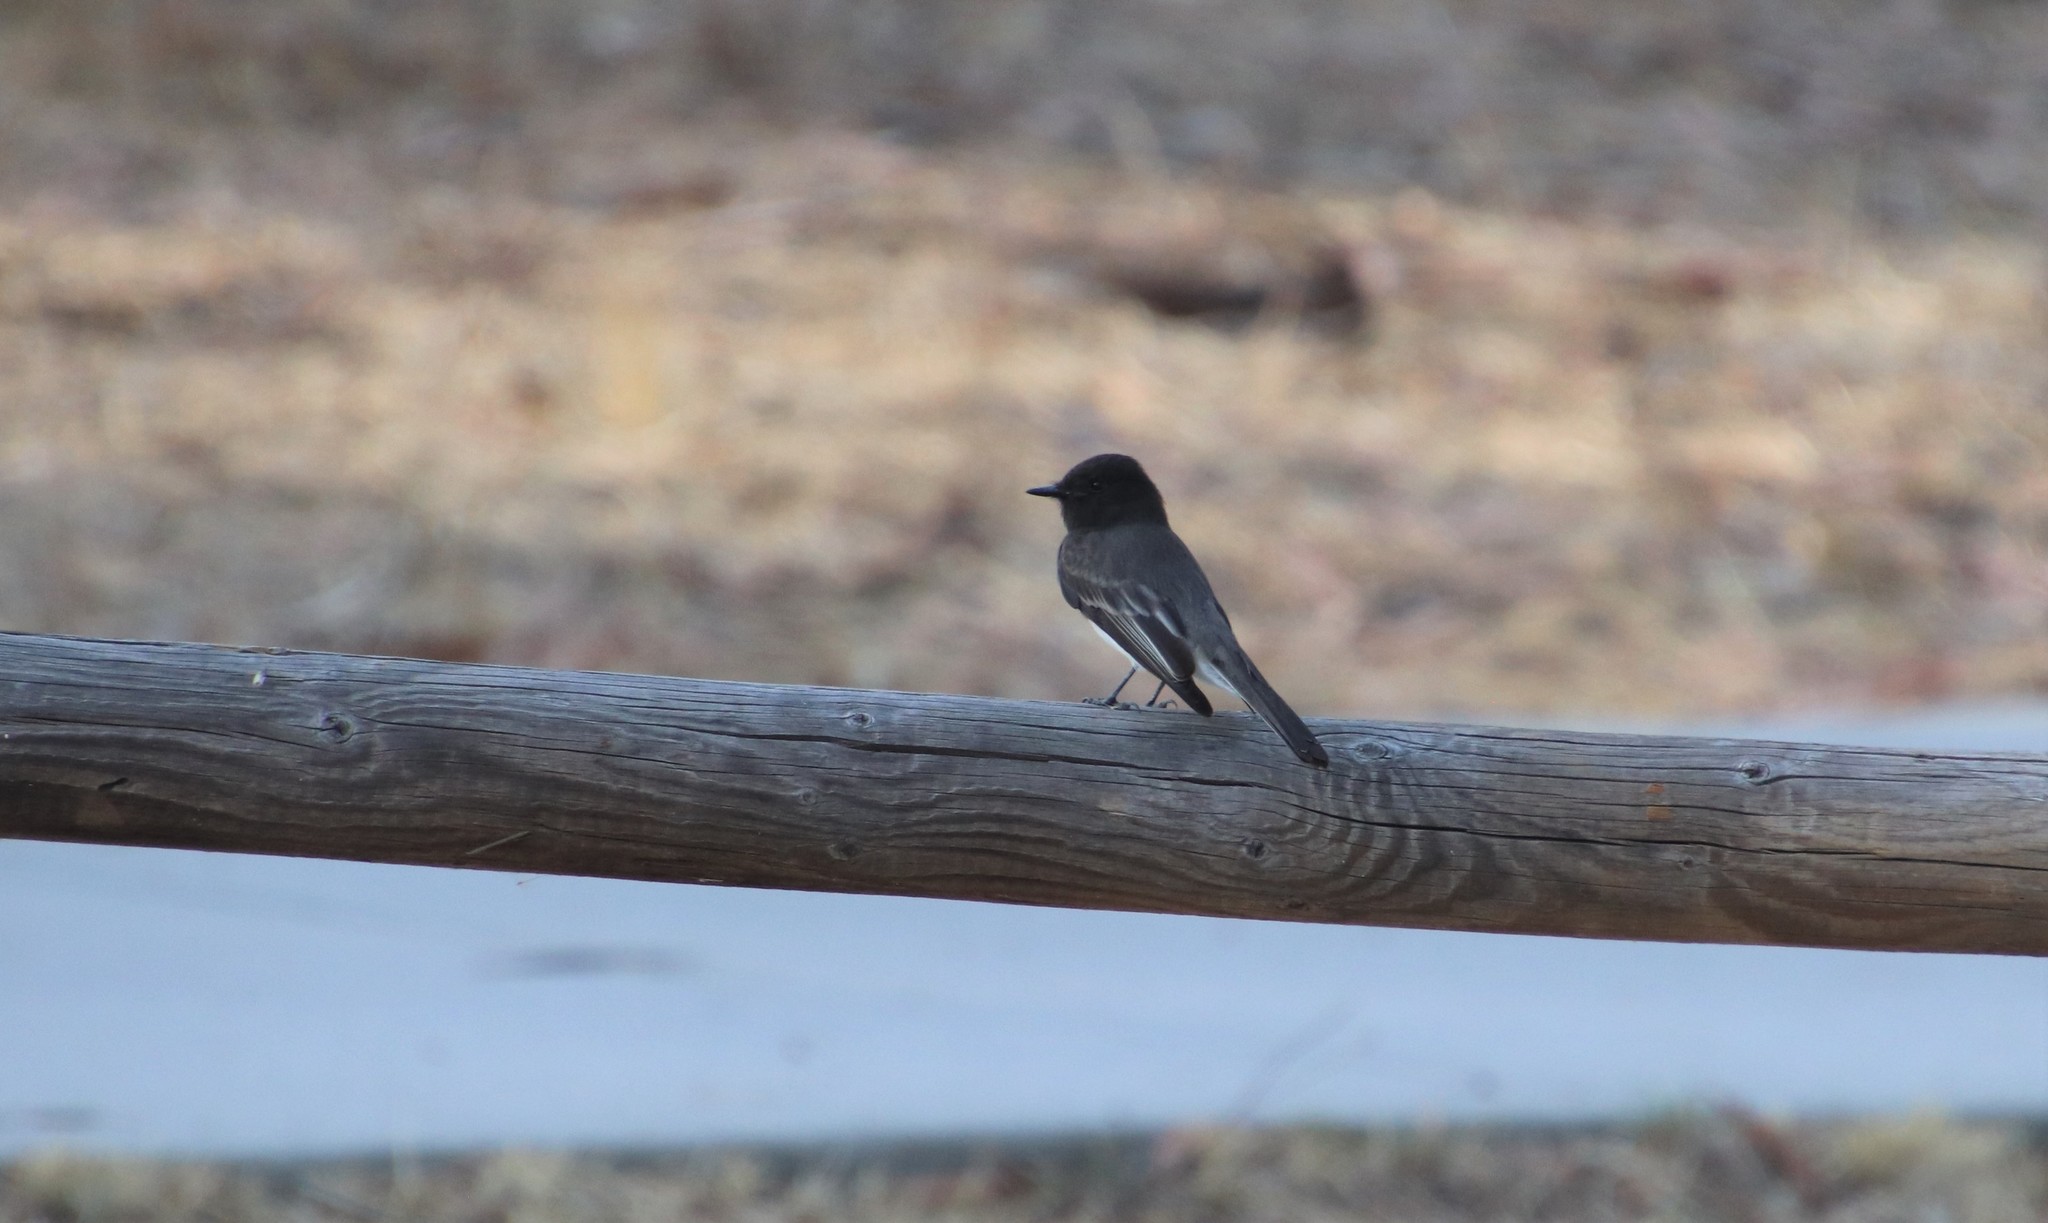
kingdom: Animalia
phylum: Chordata
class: Aves
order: Passeriformes
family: Tyrannidae
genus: Sayornis
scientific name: Sayornis nigricans
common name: Black phoebe
